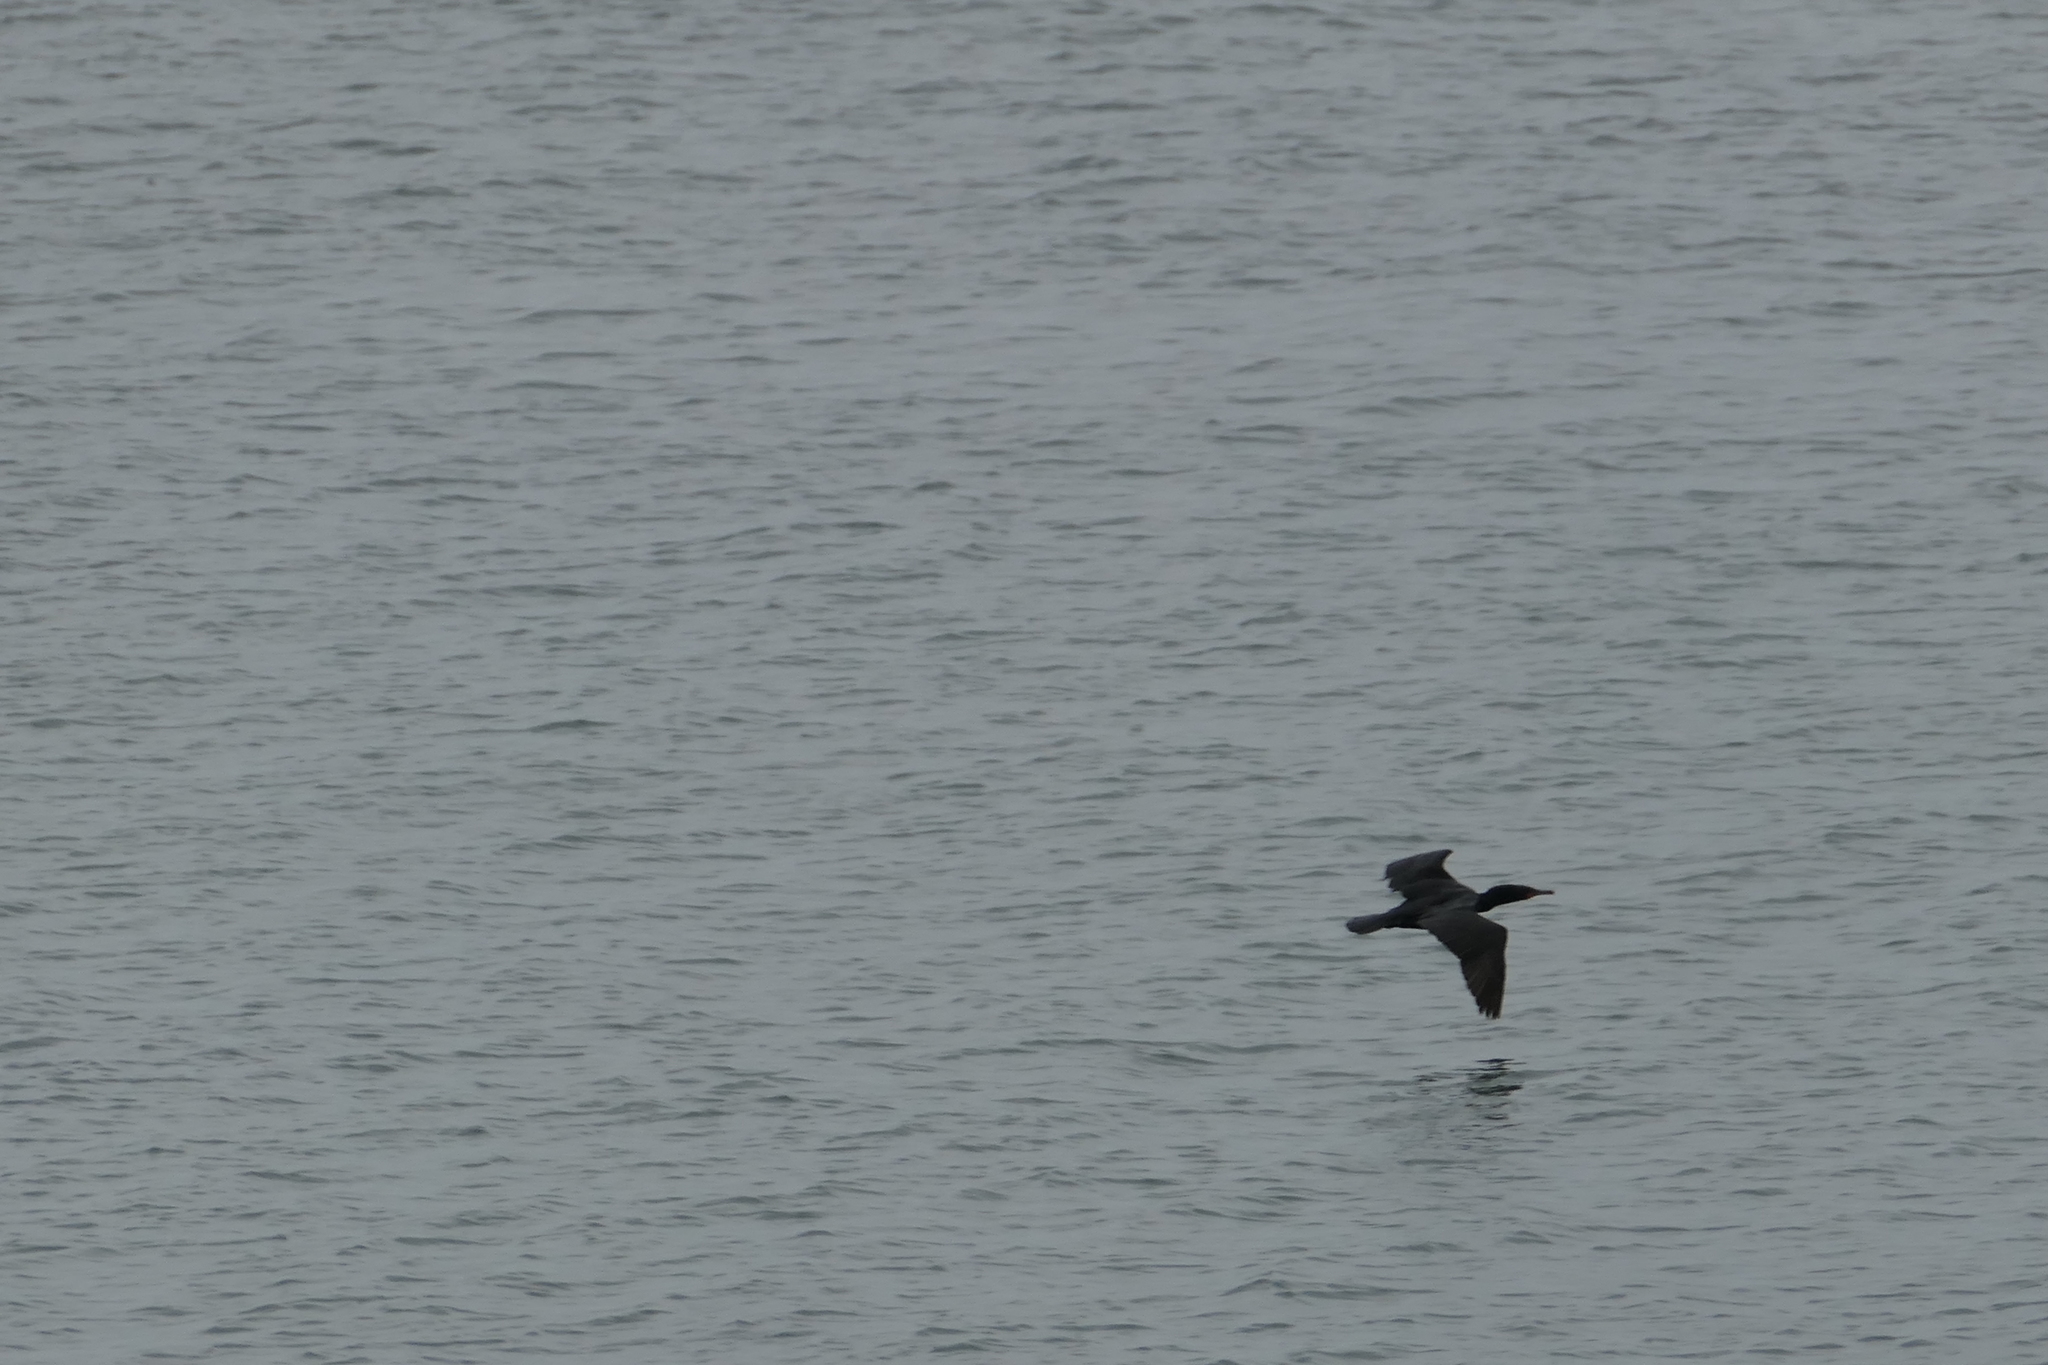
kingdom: Animalia
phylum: Chordata
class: Aves
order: Suliformes
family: Phalacrocoracidae
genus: Phalacrocorax
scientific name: Phalacrocorax auritus
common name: Double-crested cormorant
